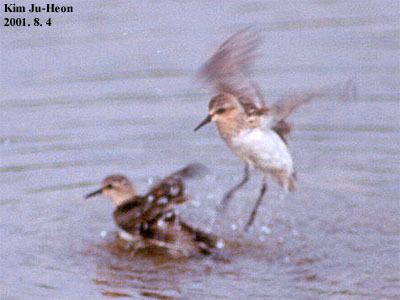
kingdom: Animalia
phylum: Chordata
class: Aves
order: Charadriiformes
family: Scolopacidae
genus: Calidris
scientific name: Calidris ruficollis
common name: Red-necked stint
